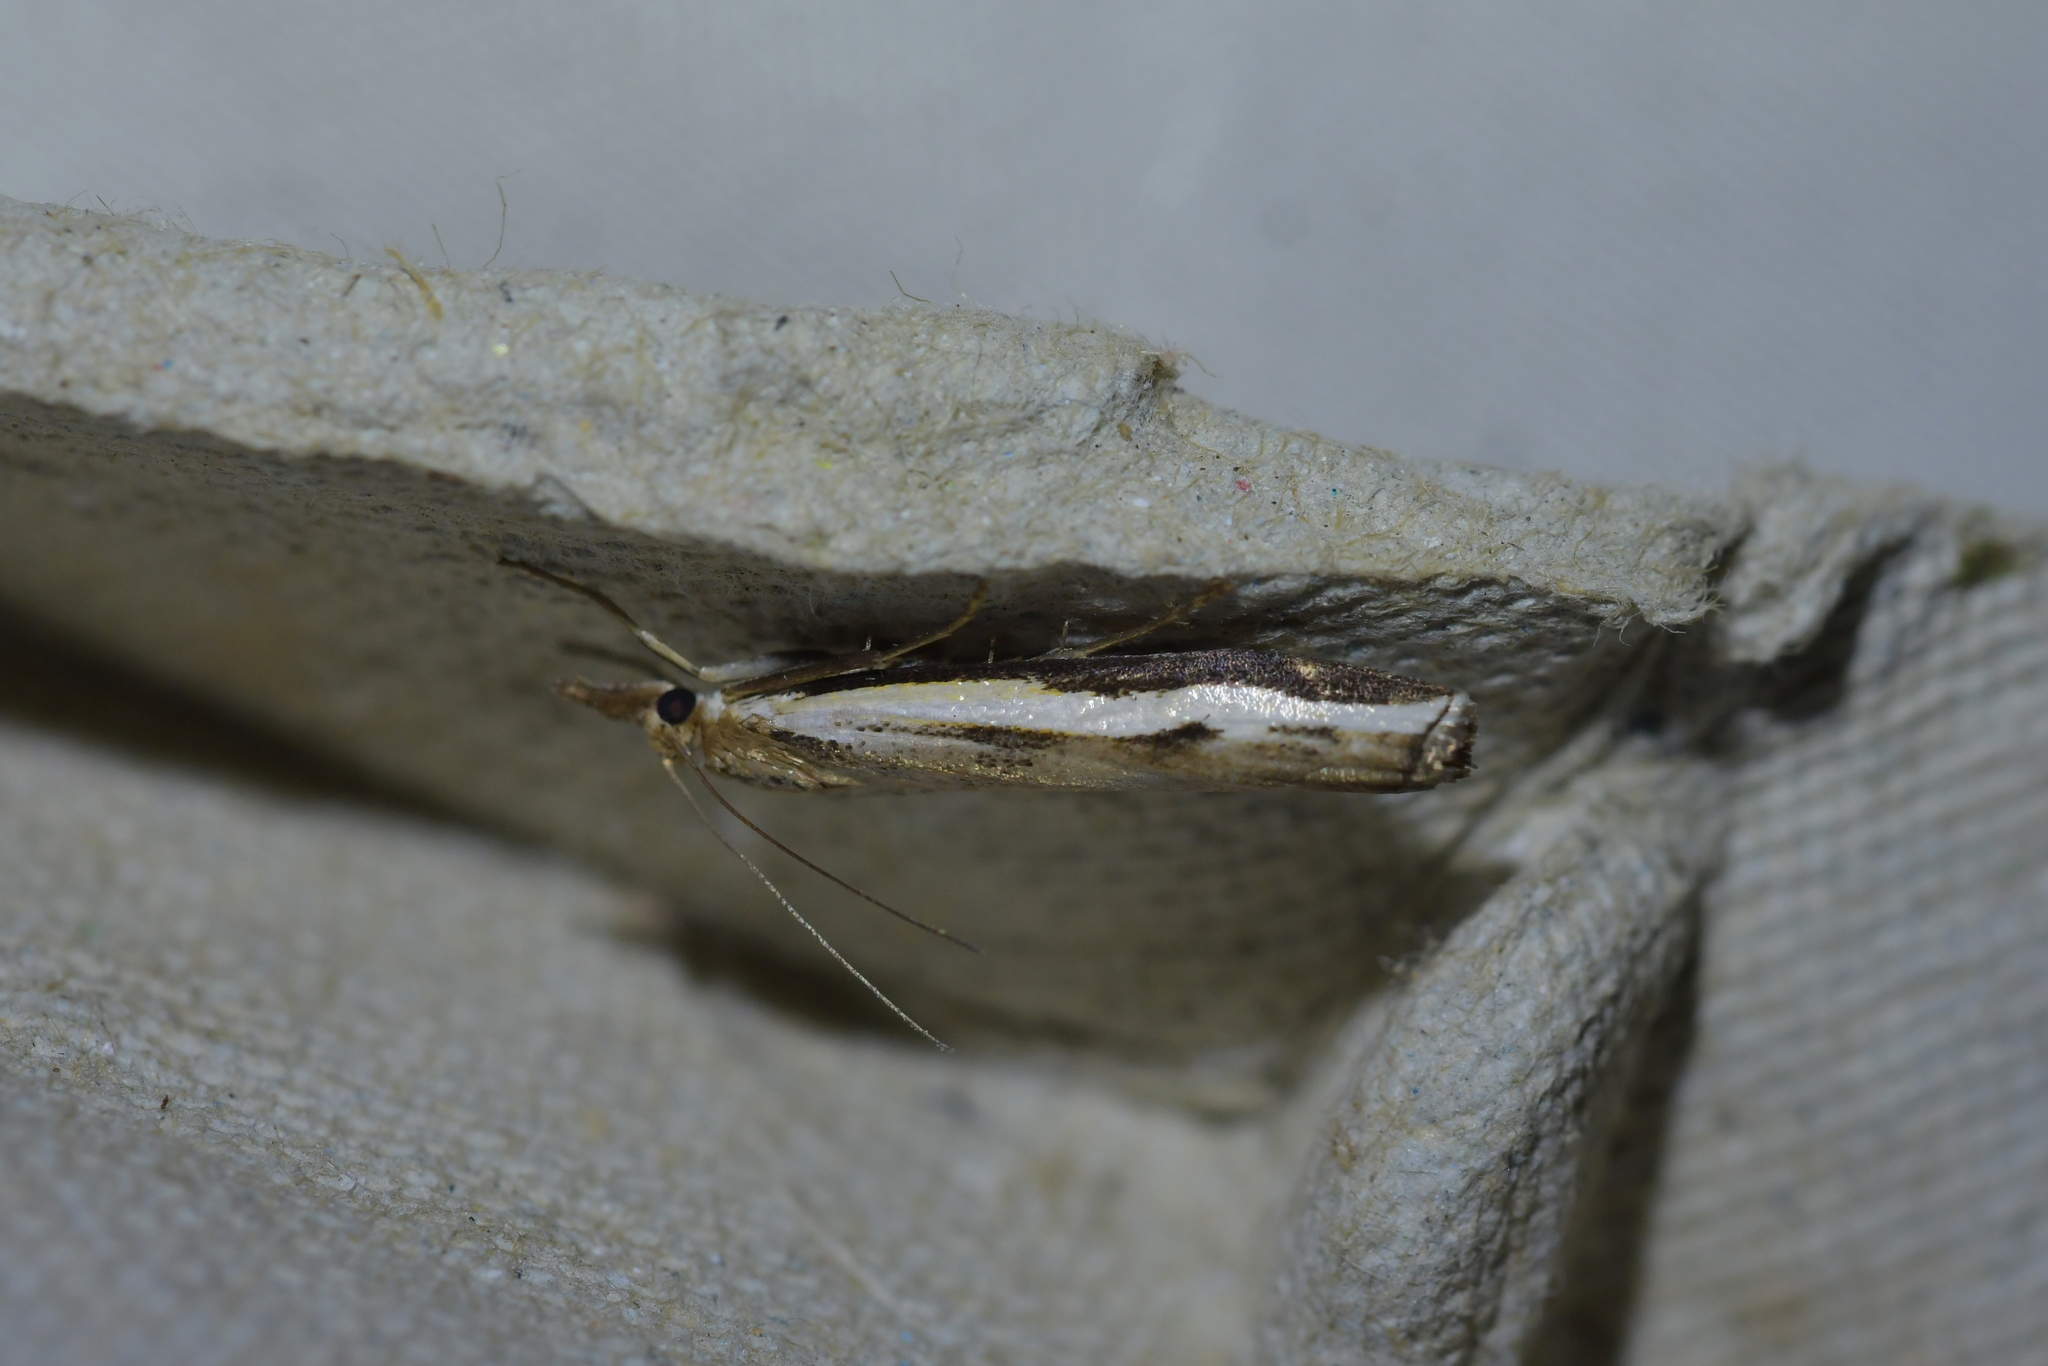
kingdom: Animalia
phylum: Arthropoda
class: Insecta
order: Lepidoptera
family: Crambidae
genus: Orocrambus
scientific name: Orocrambus flexuosellus
